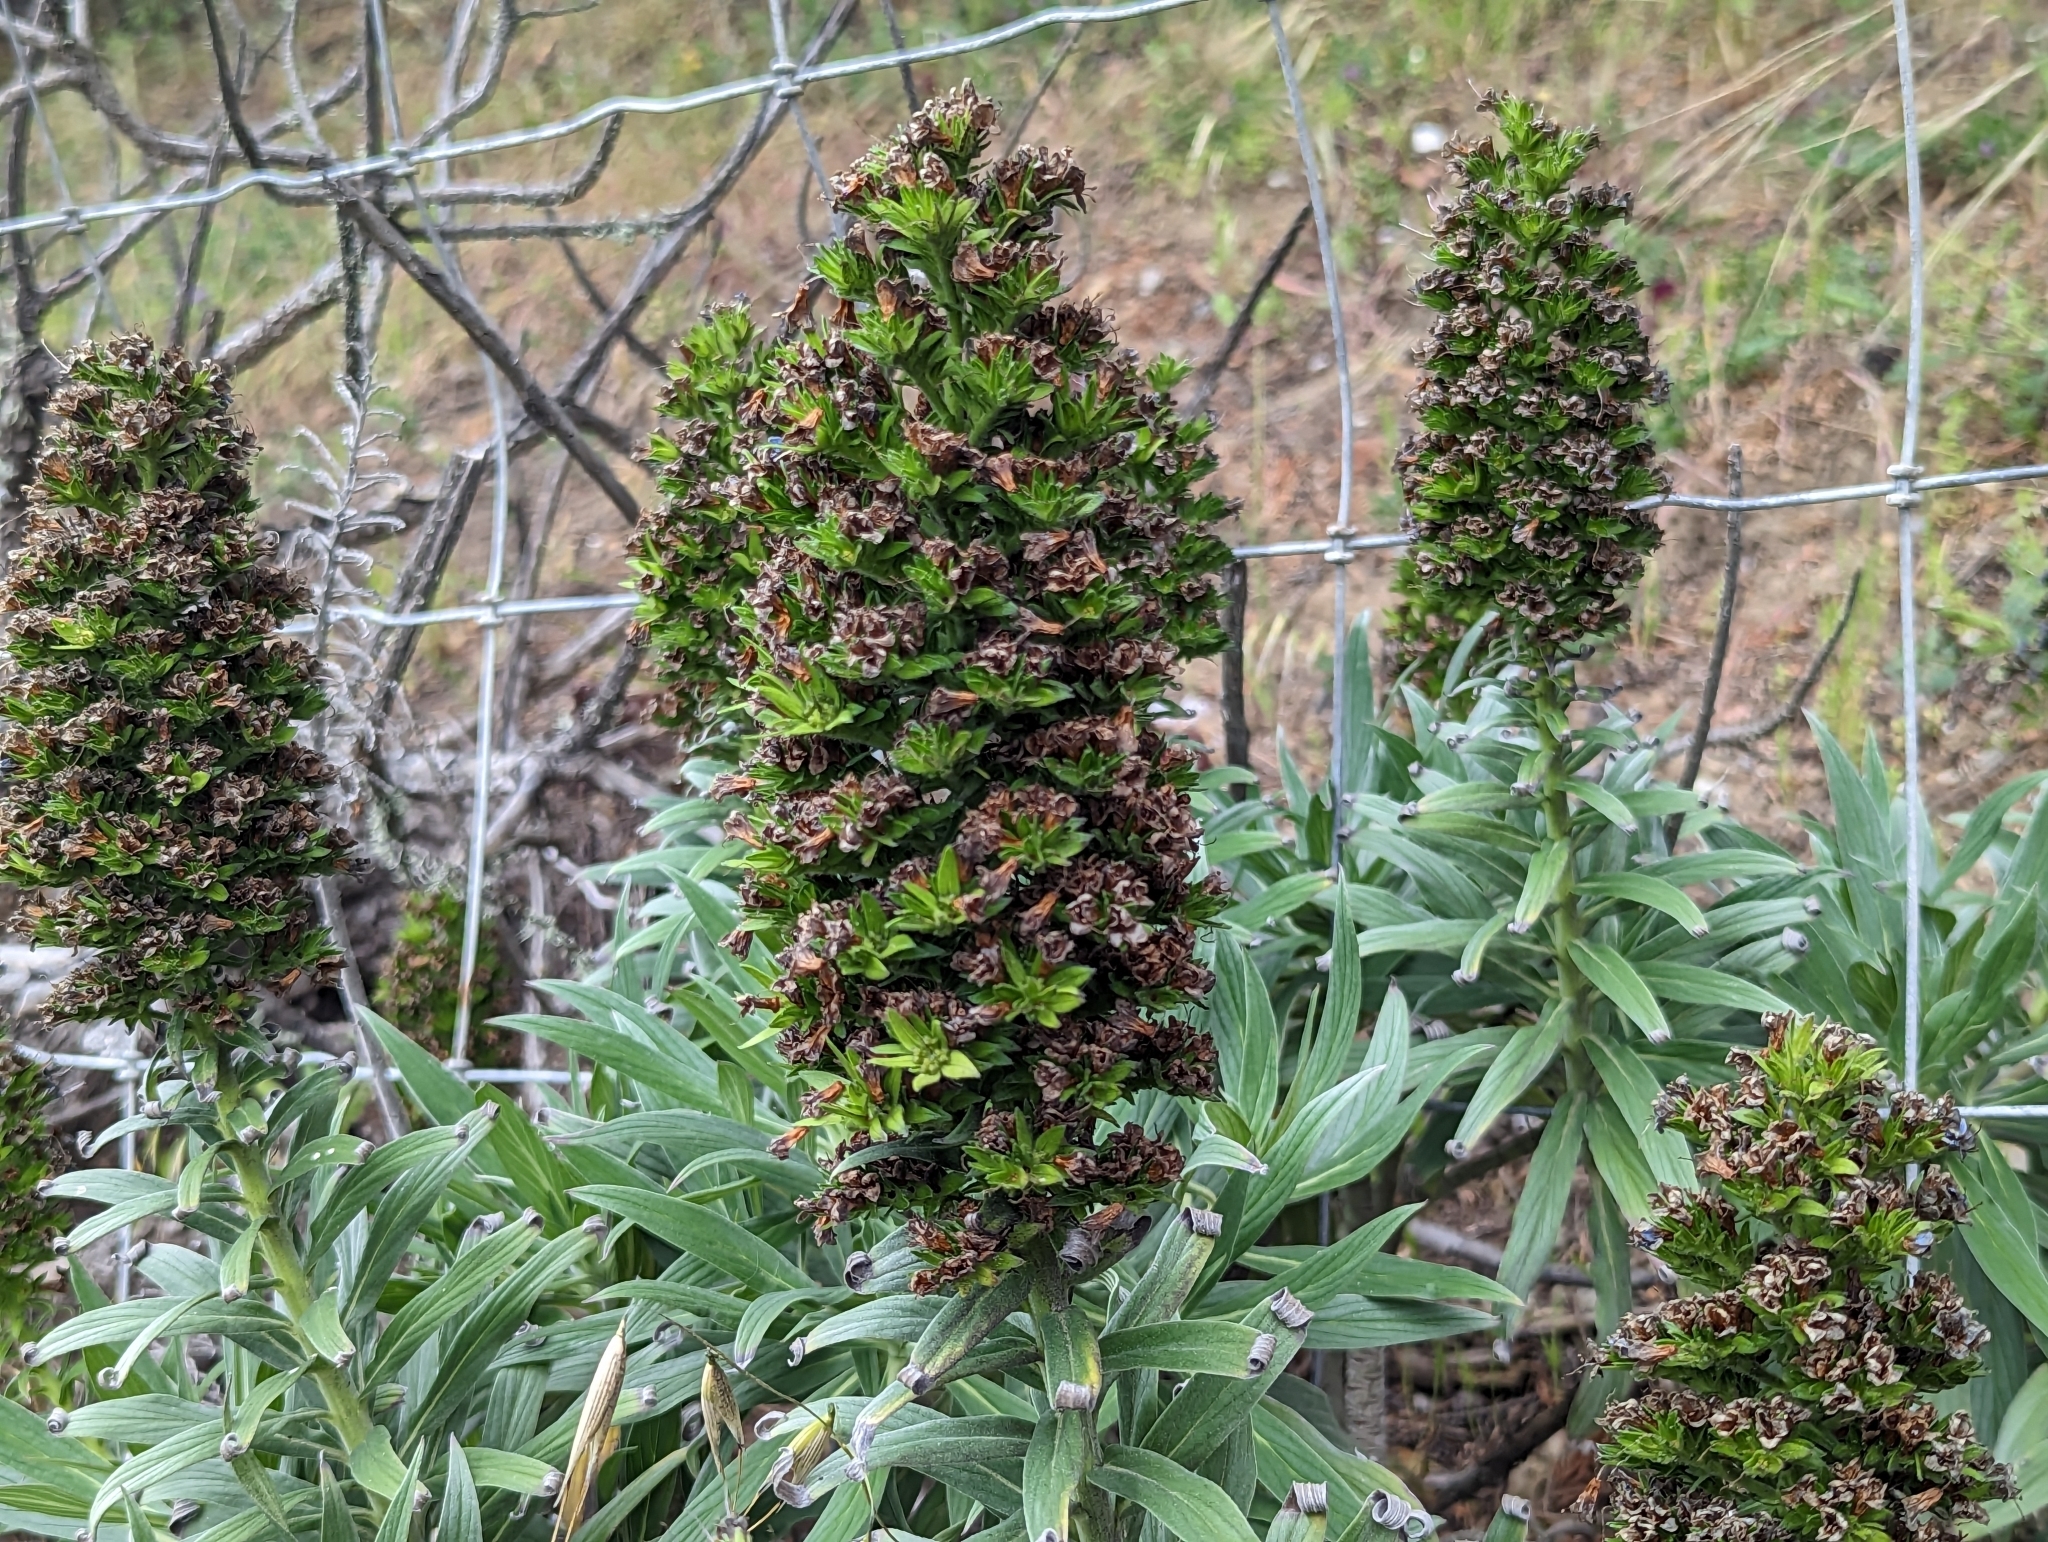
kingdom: Plantae
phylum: Tracheophyta
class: Magnoliopsida
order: Boraginales
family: Boraginaceae
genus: Echium
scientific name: Echium candicans
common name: Pride of madeira
